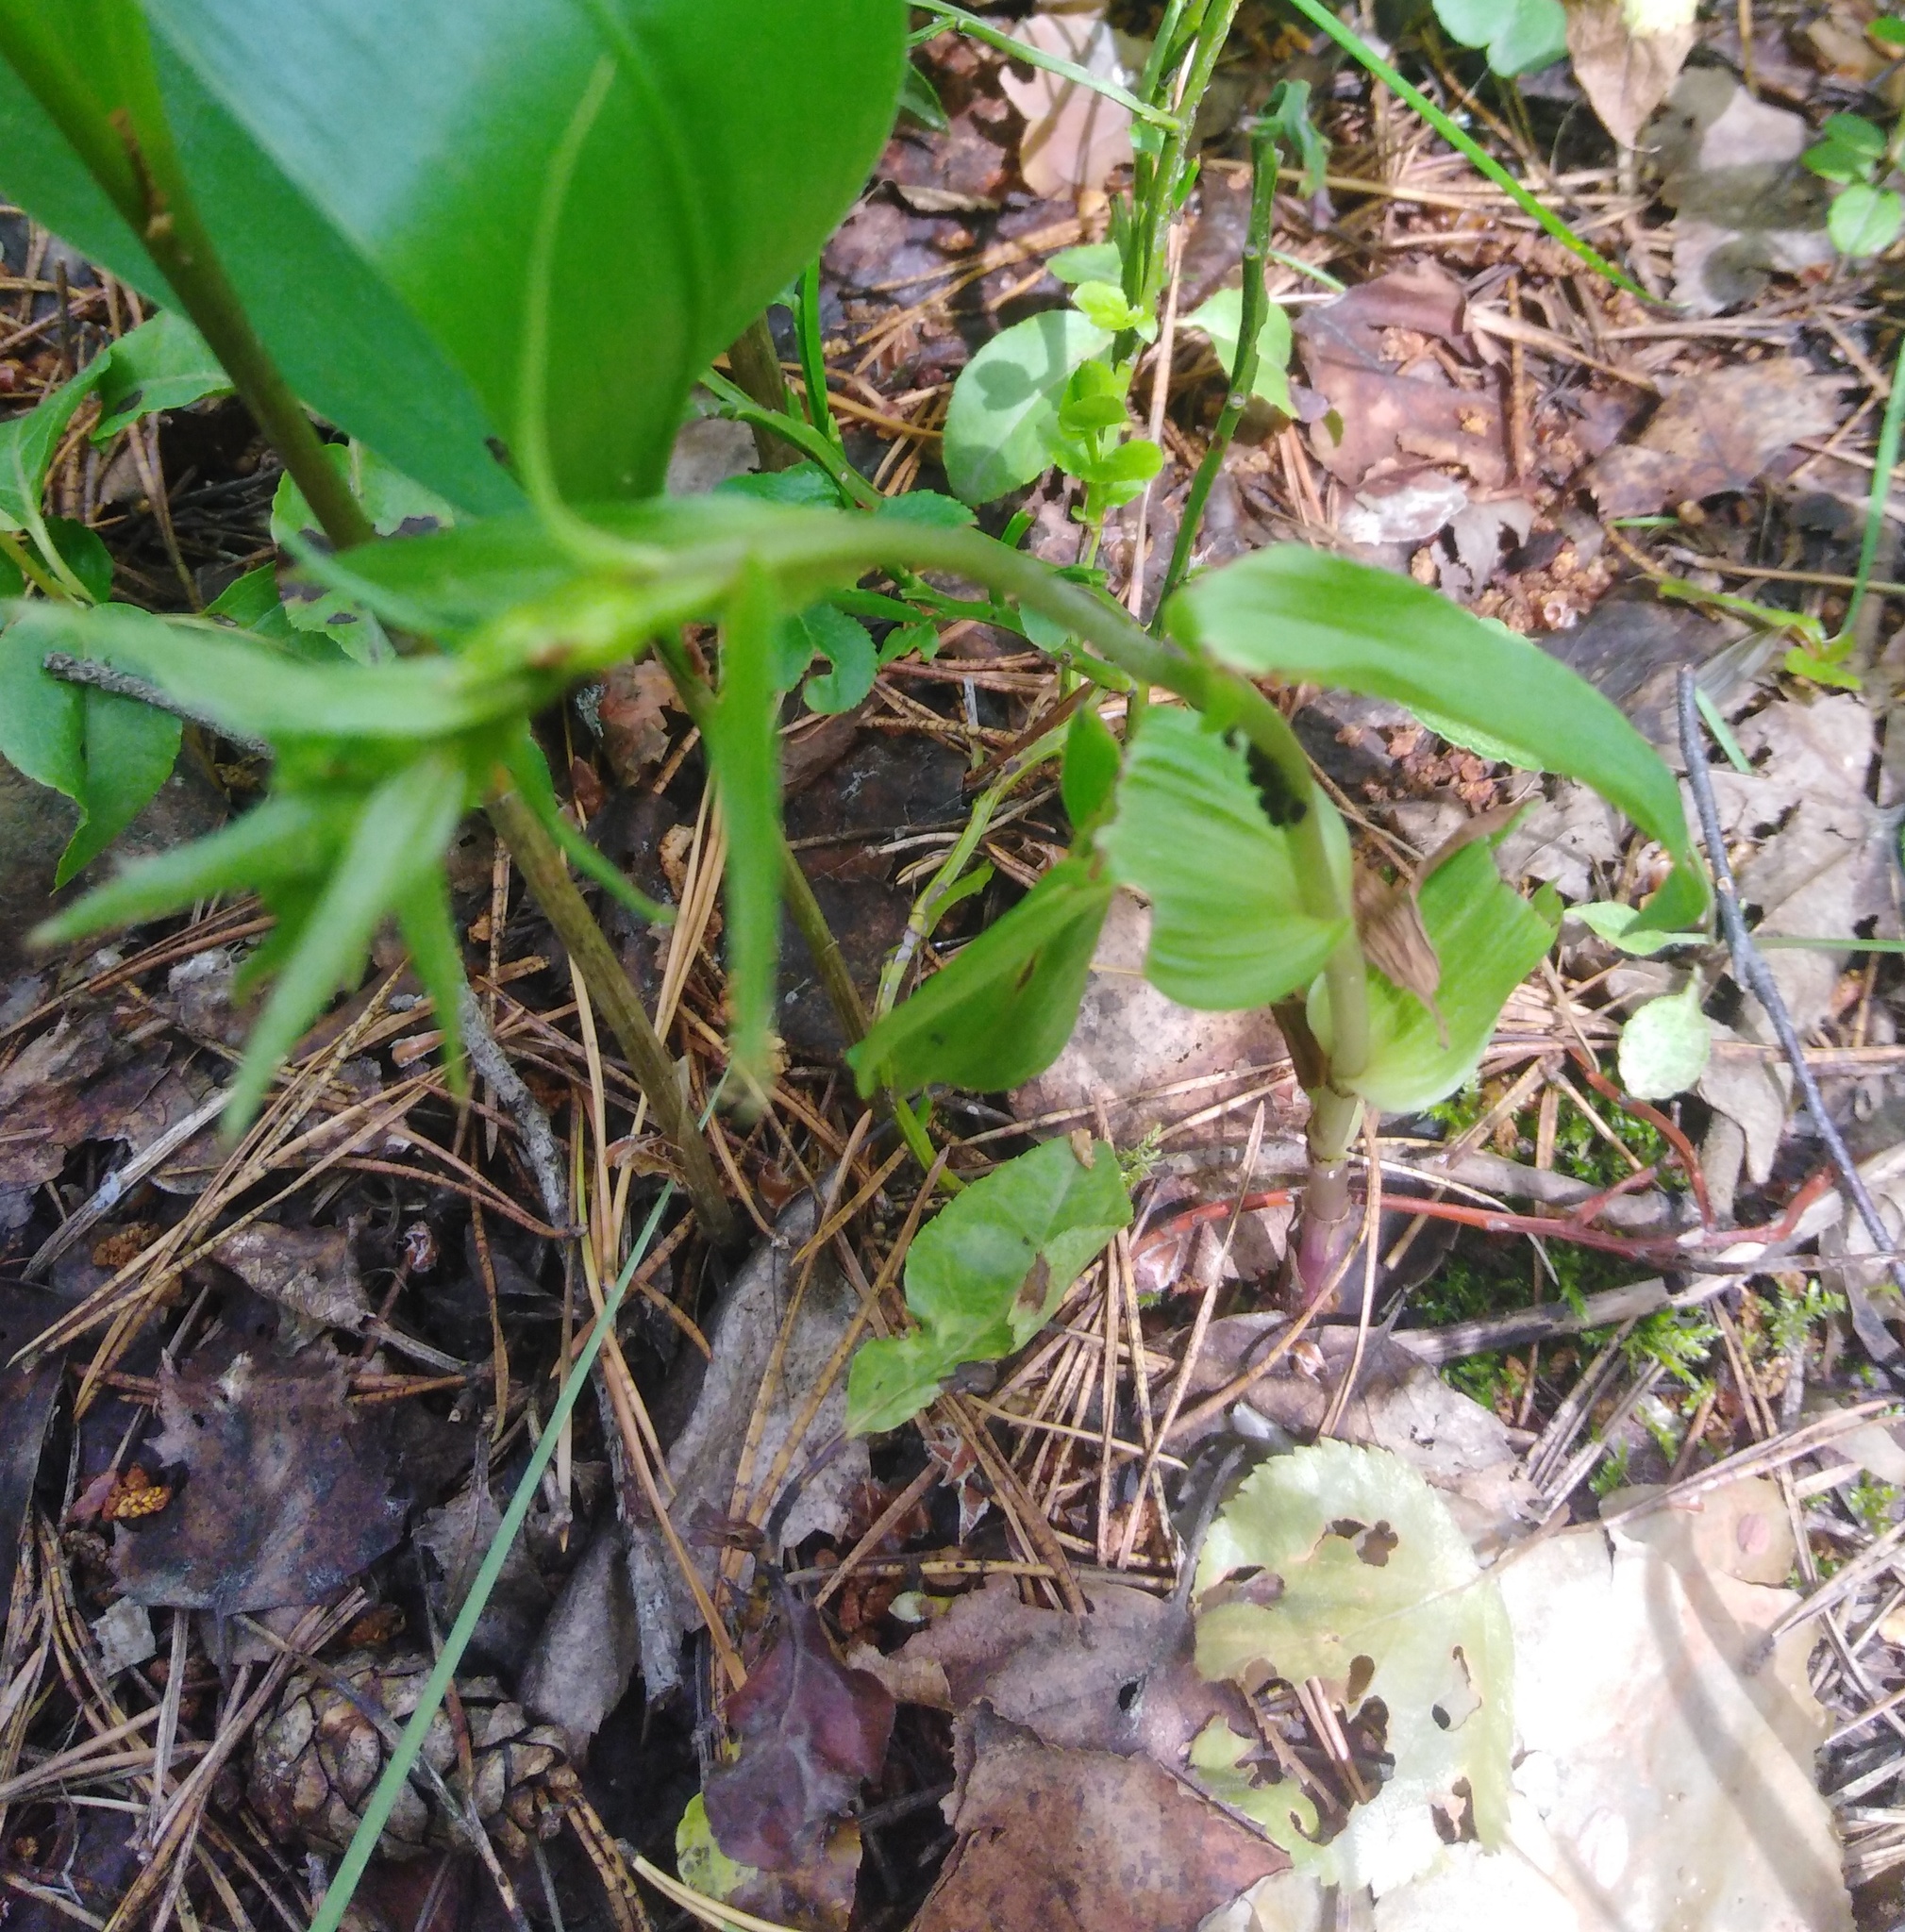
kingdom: Plantae
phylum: Tracheophyta
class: Liliopsida
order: Asparagales
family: Orchidaceae
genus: Epipactis
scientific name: Epipactis helleborine
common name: Broad-leaved helleborine
